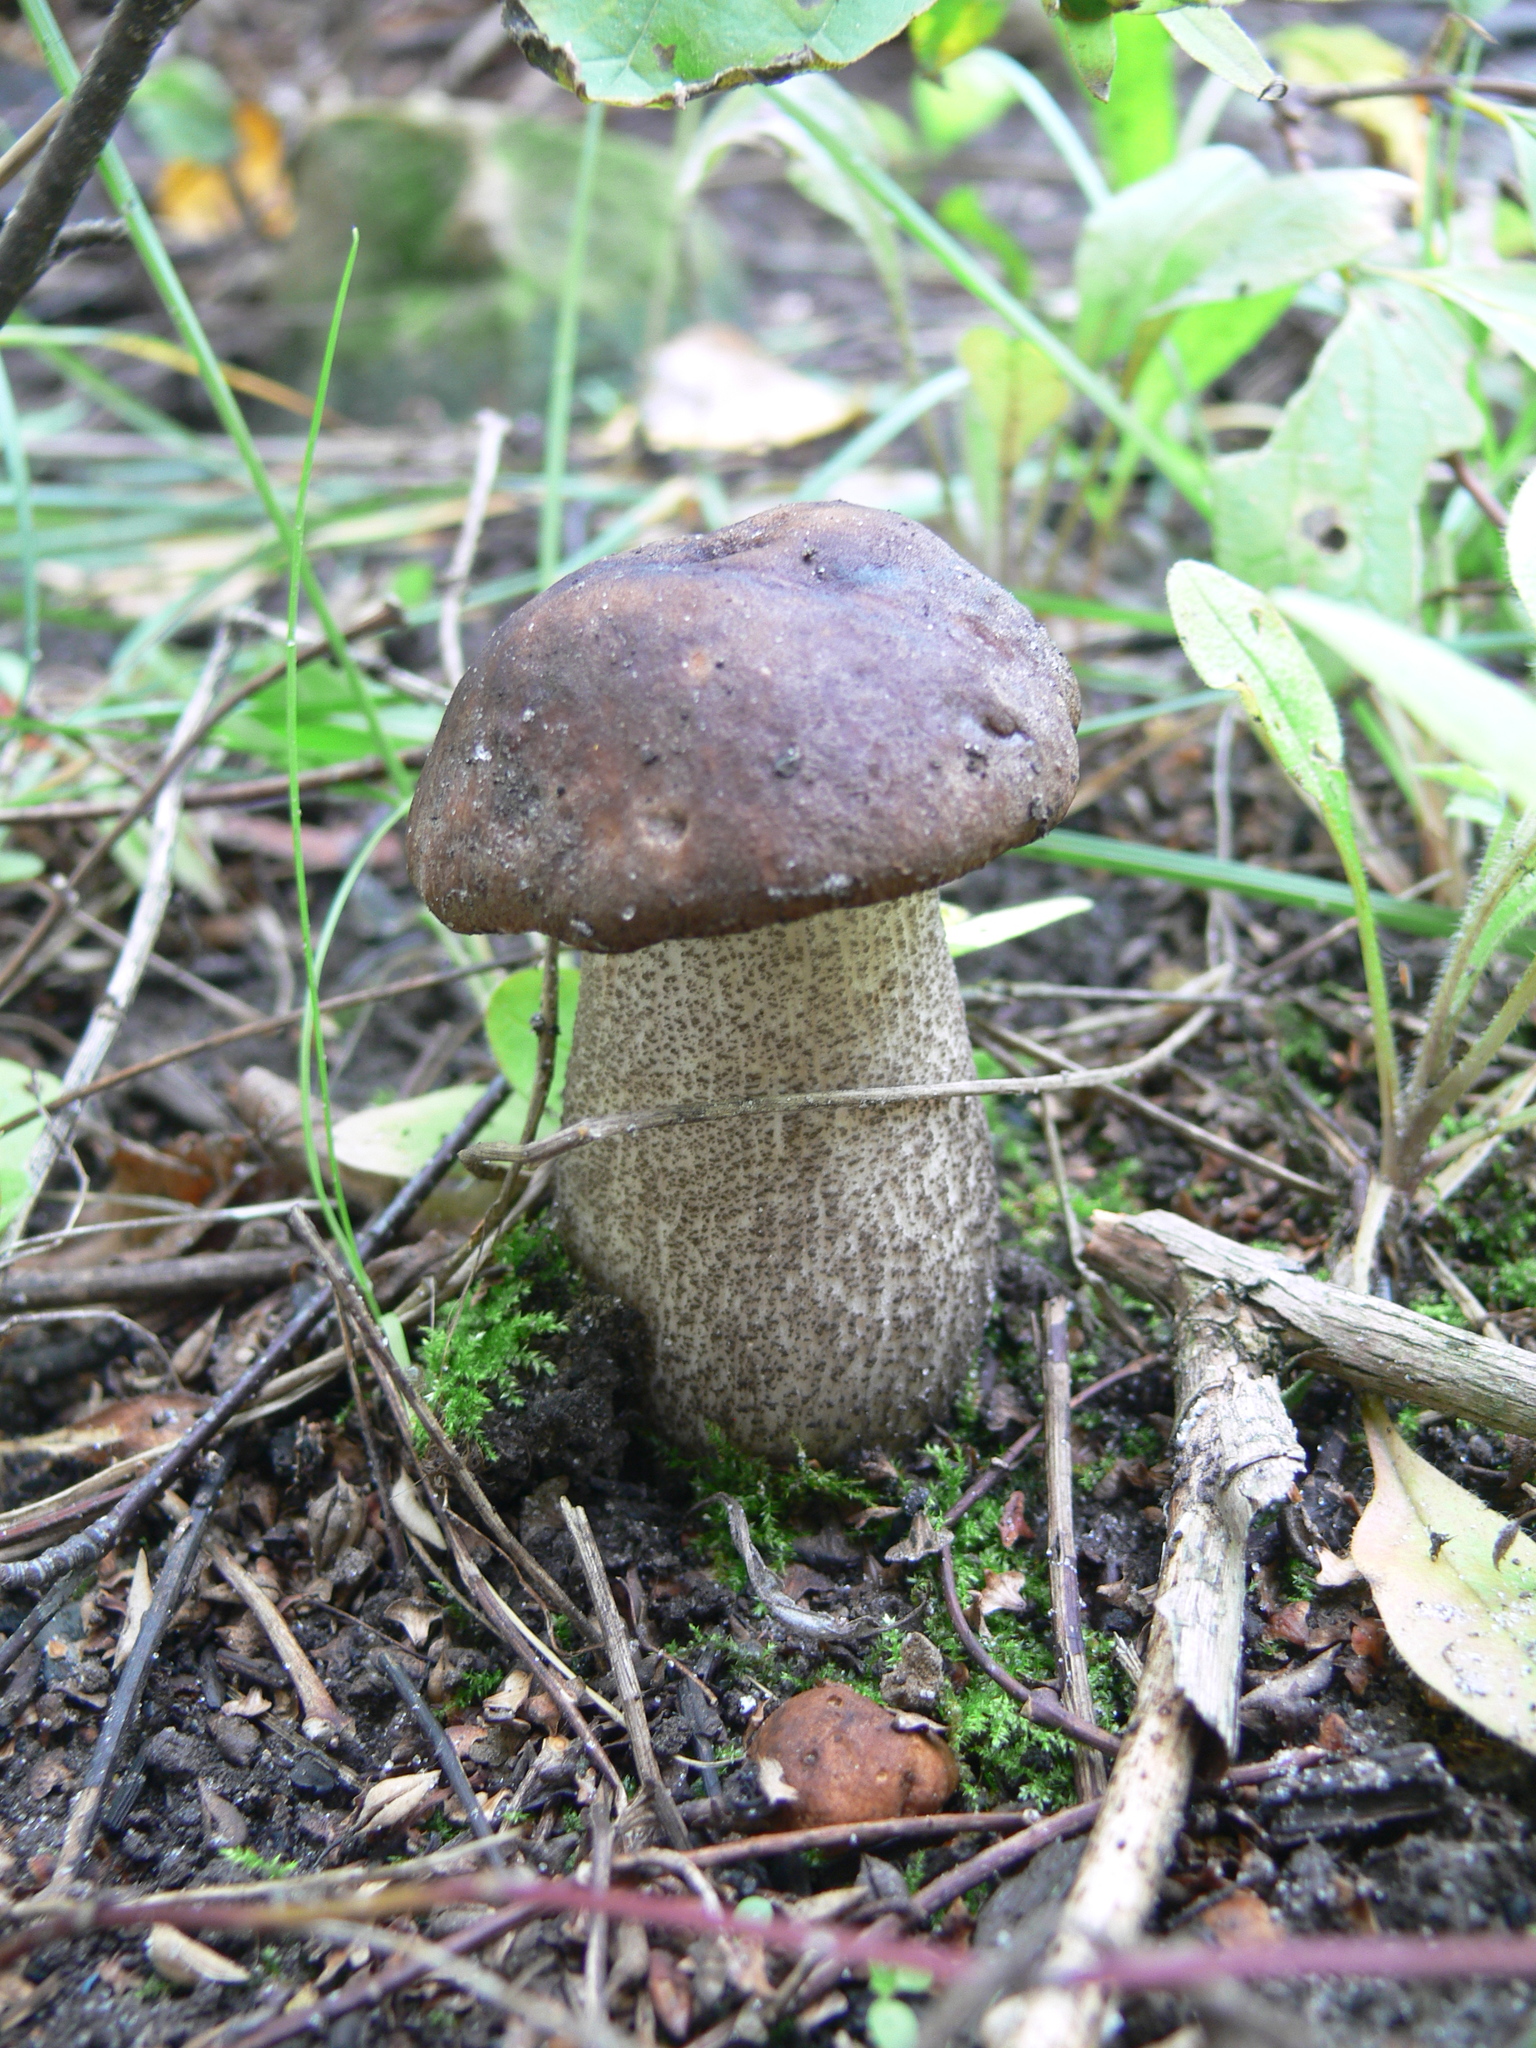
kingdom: Fungi
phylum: Basidiomycota
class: Agaricomycetes
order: Boletales
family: Boletaceae
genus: Leccinum
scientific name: Leccinum scabrum
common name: Blushing bolete
